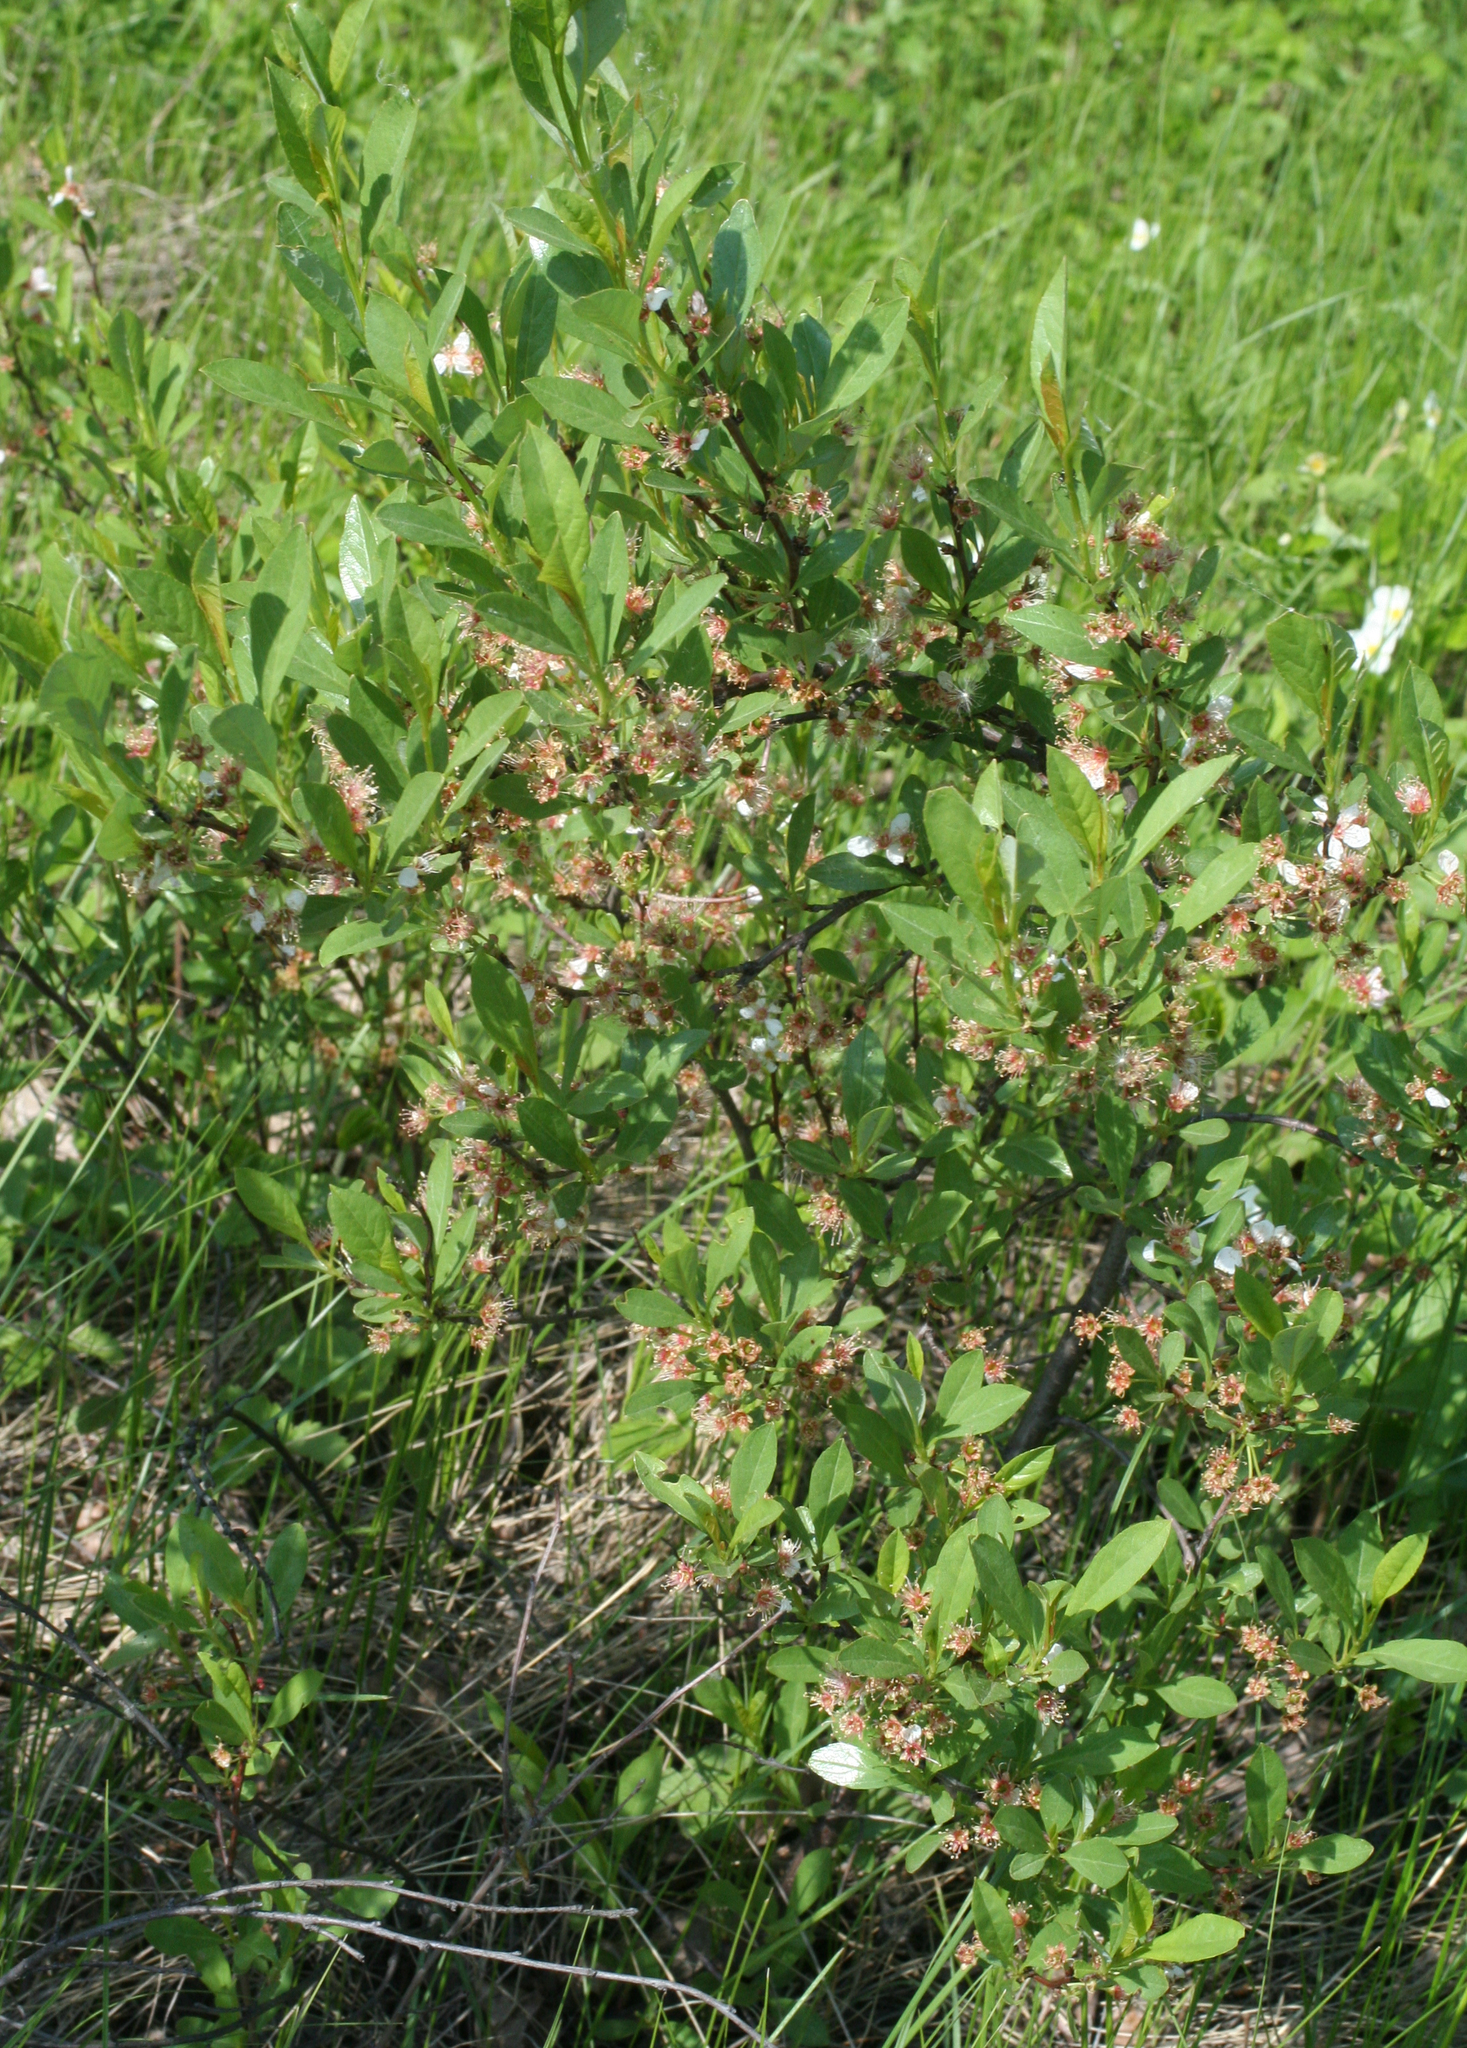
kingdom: Plantae
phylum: Tracheophyta
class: Magnoliopsida
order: Rosales
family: Rosaceae
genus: Prunus
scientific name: Prunus pumila
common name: Dwarf cherry
